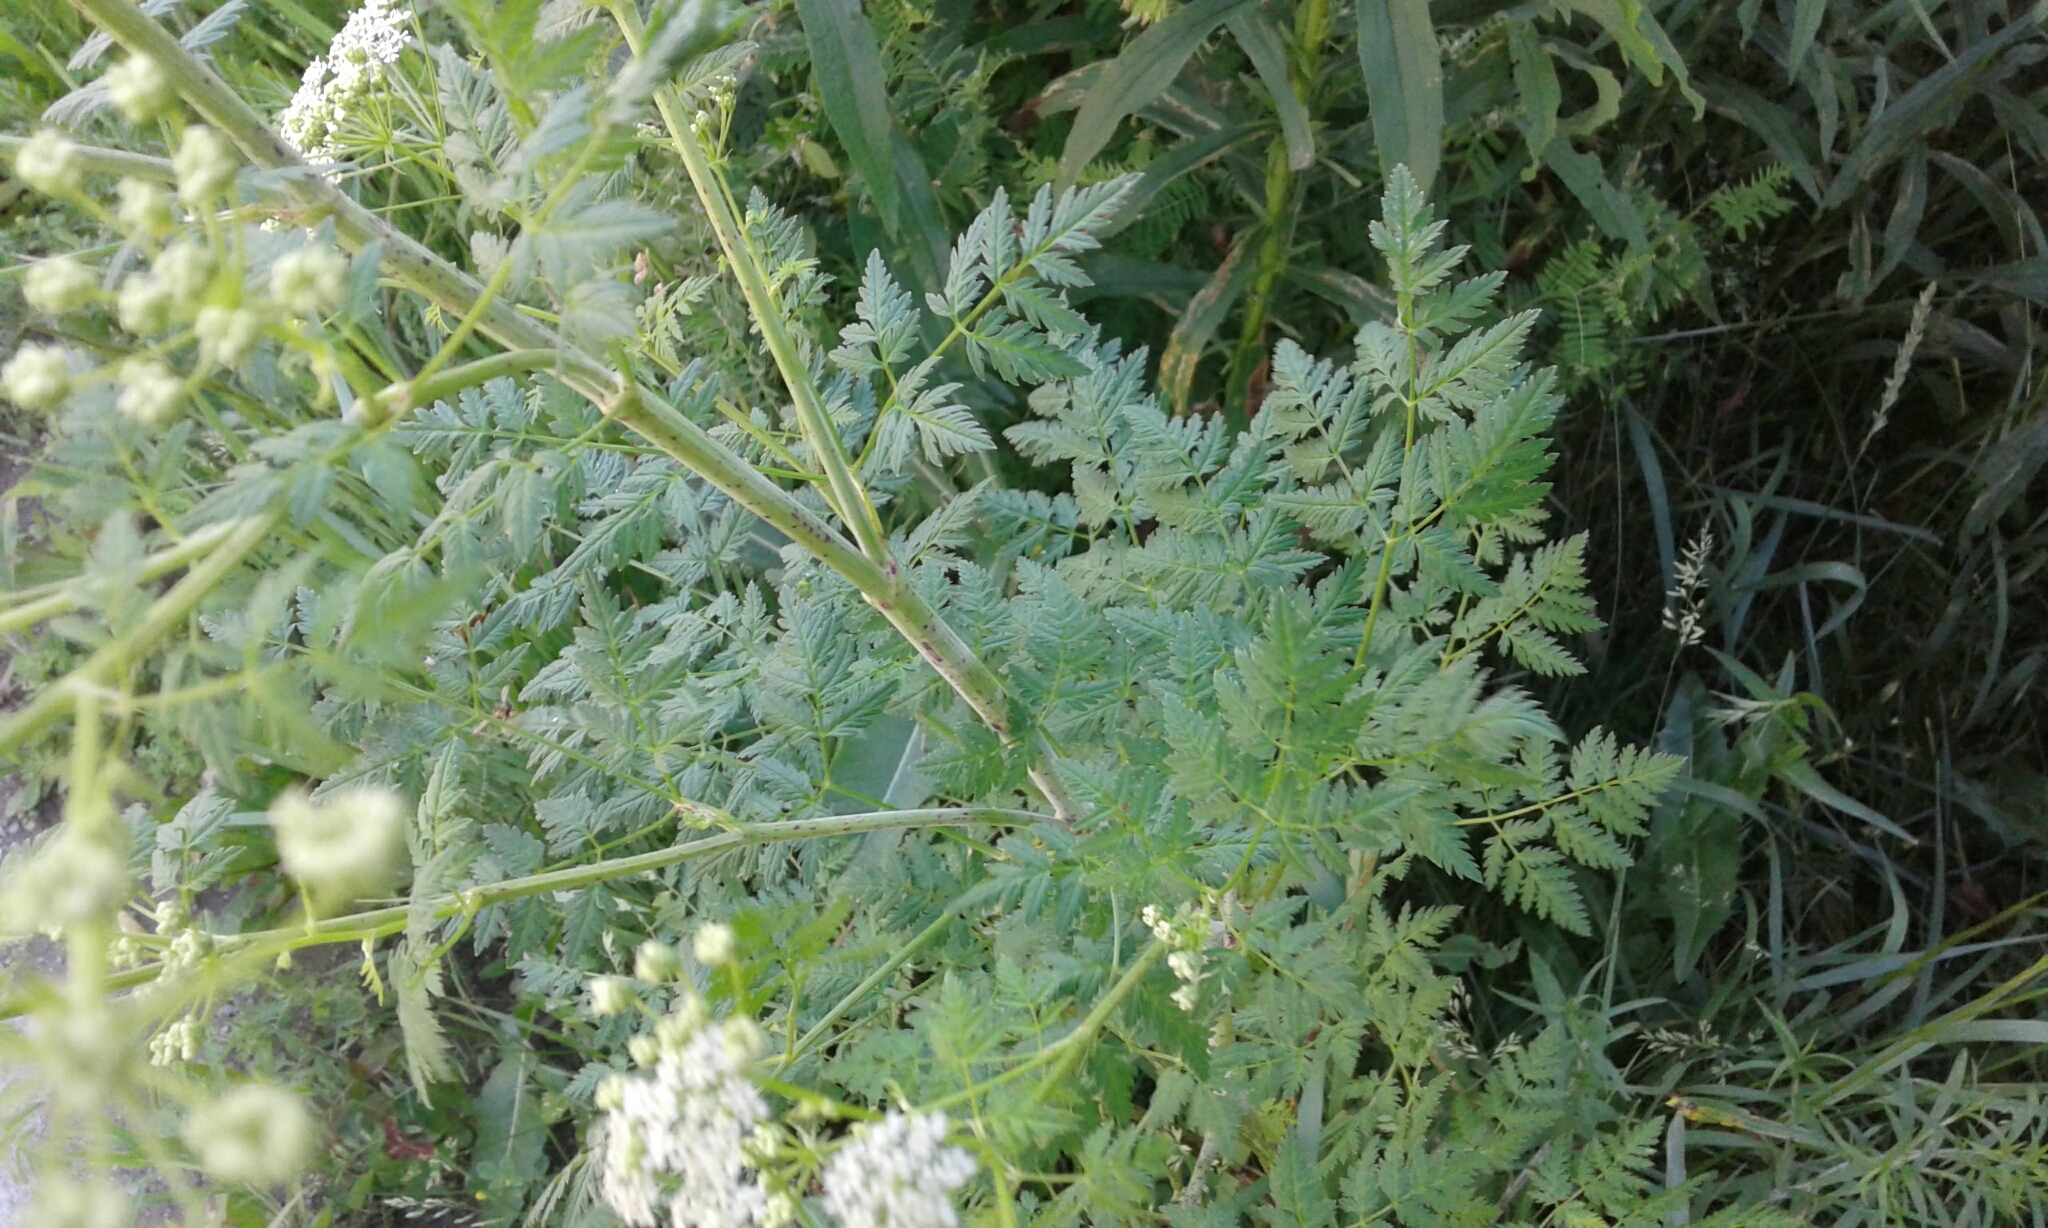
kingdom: Plantae
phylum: Tracheophyta
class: Magnoliopsida
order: Apiales
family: Apiaceae
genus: Conium
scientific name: Conium maculatum
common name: Hemlock
